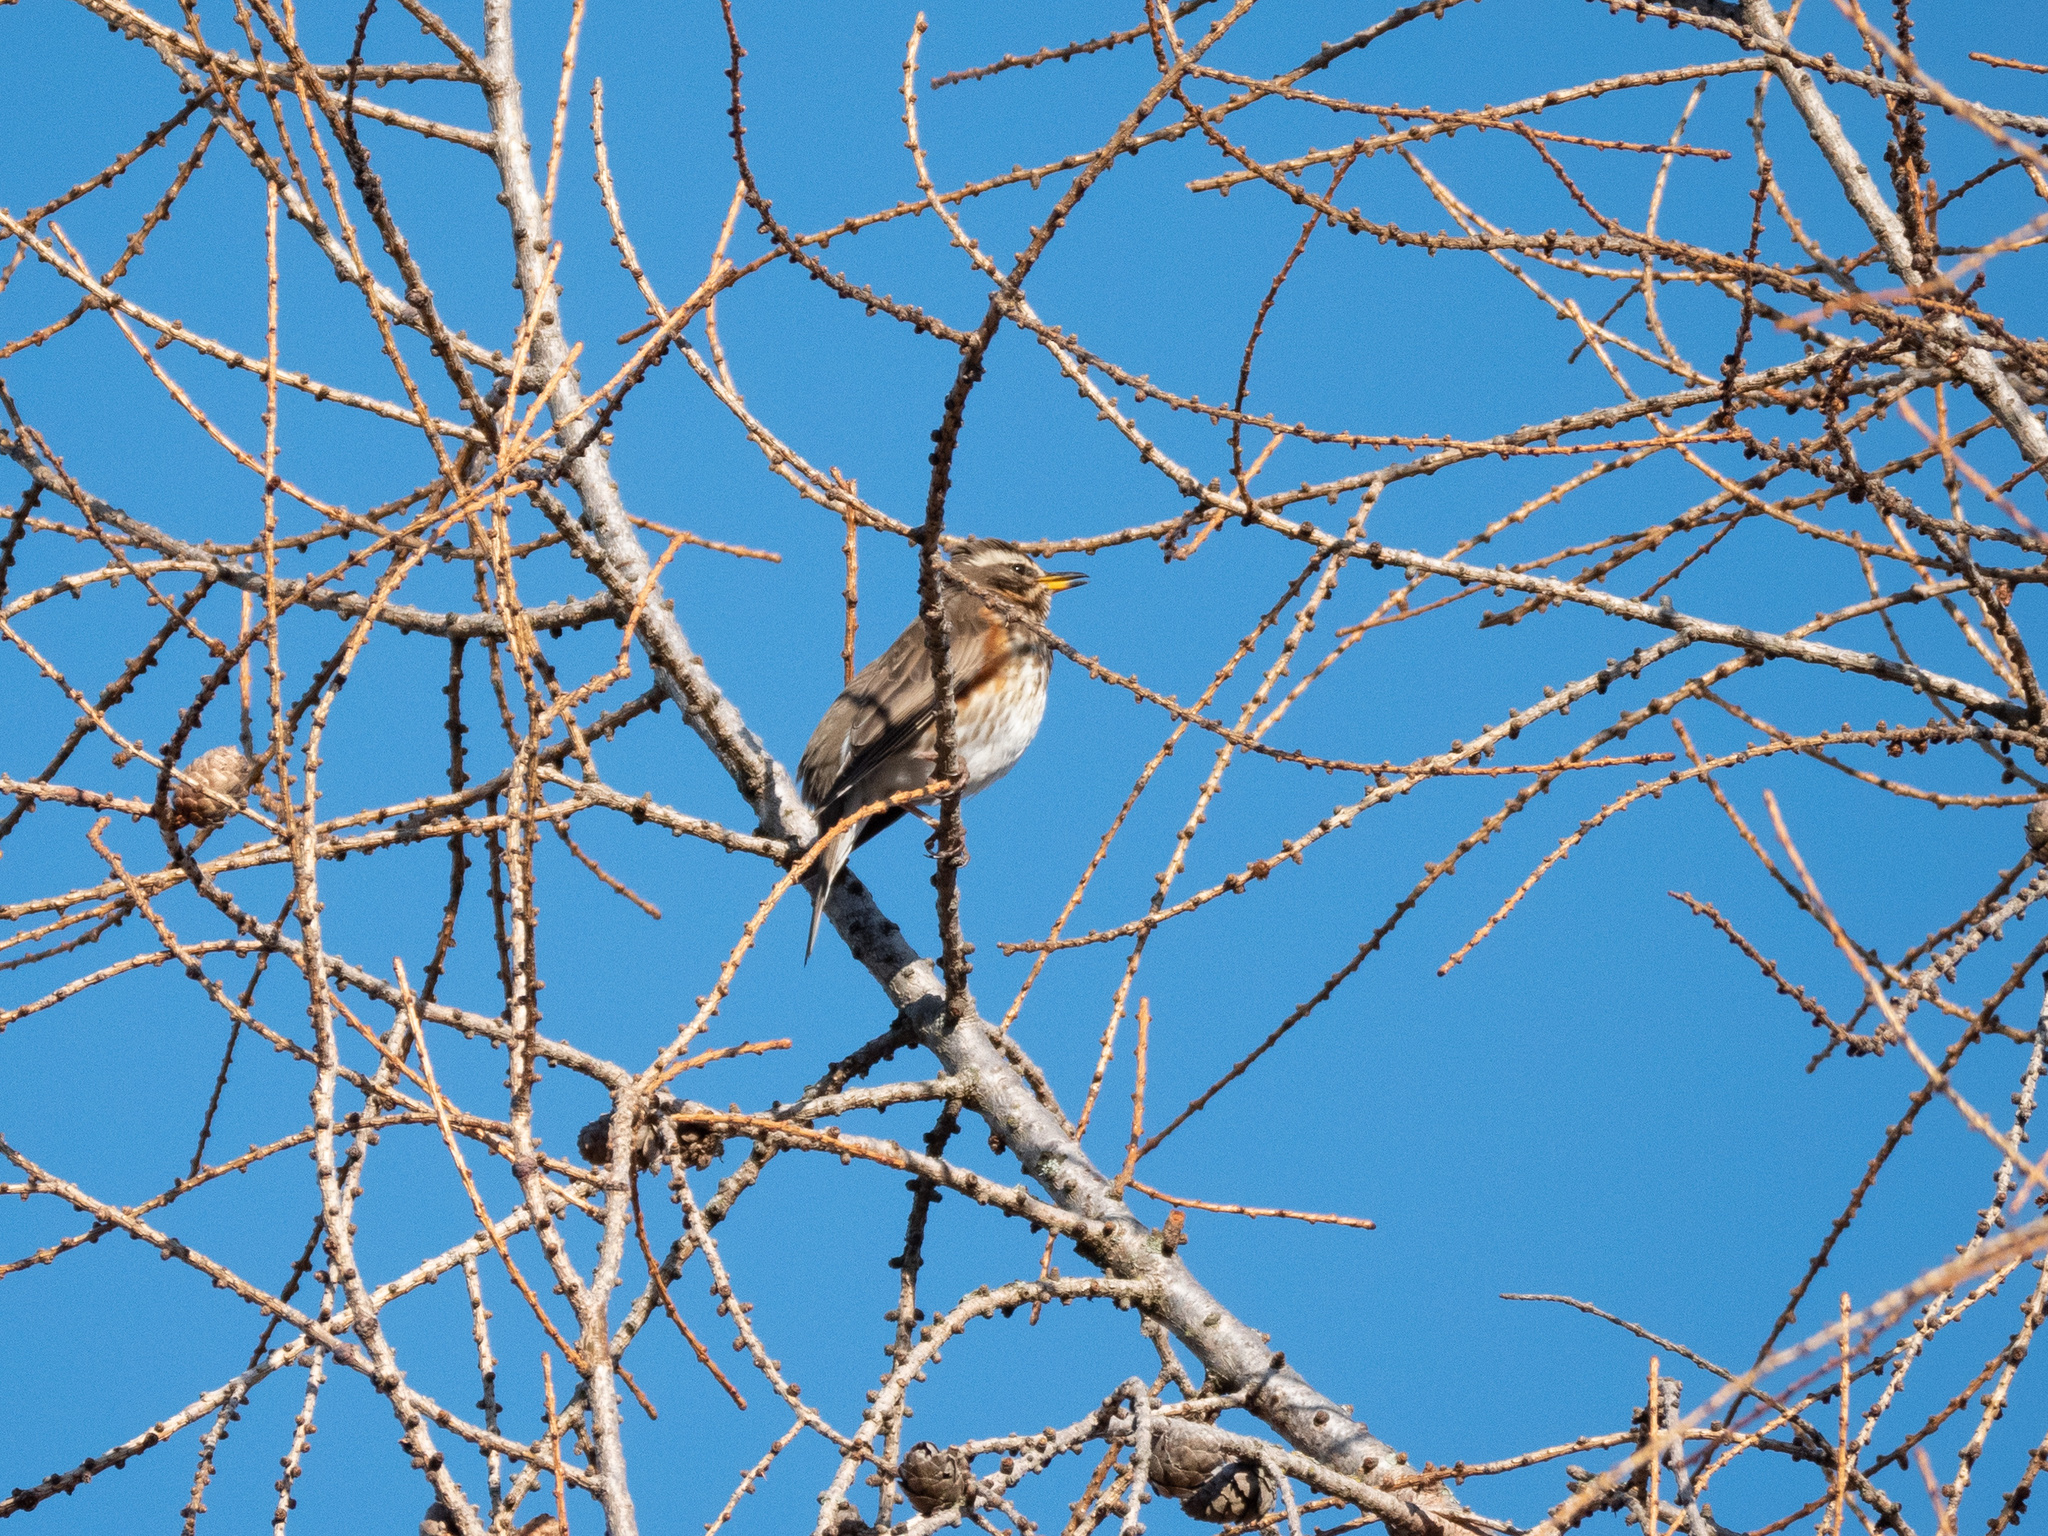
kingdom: Animalia
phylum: Chordata
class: Aves
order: Passeriformes
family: Turdidae
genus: Turdus
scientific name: Turdus iliacus
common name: Redwing
